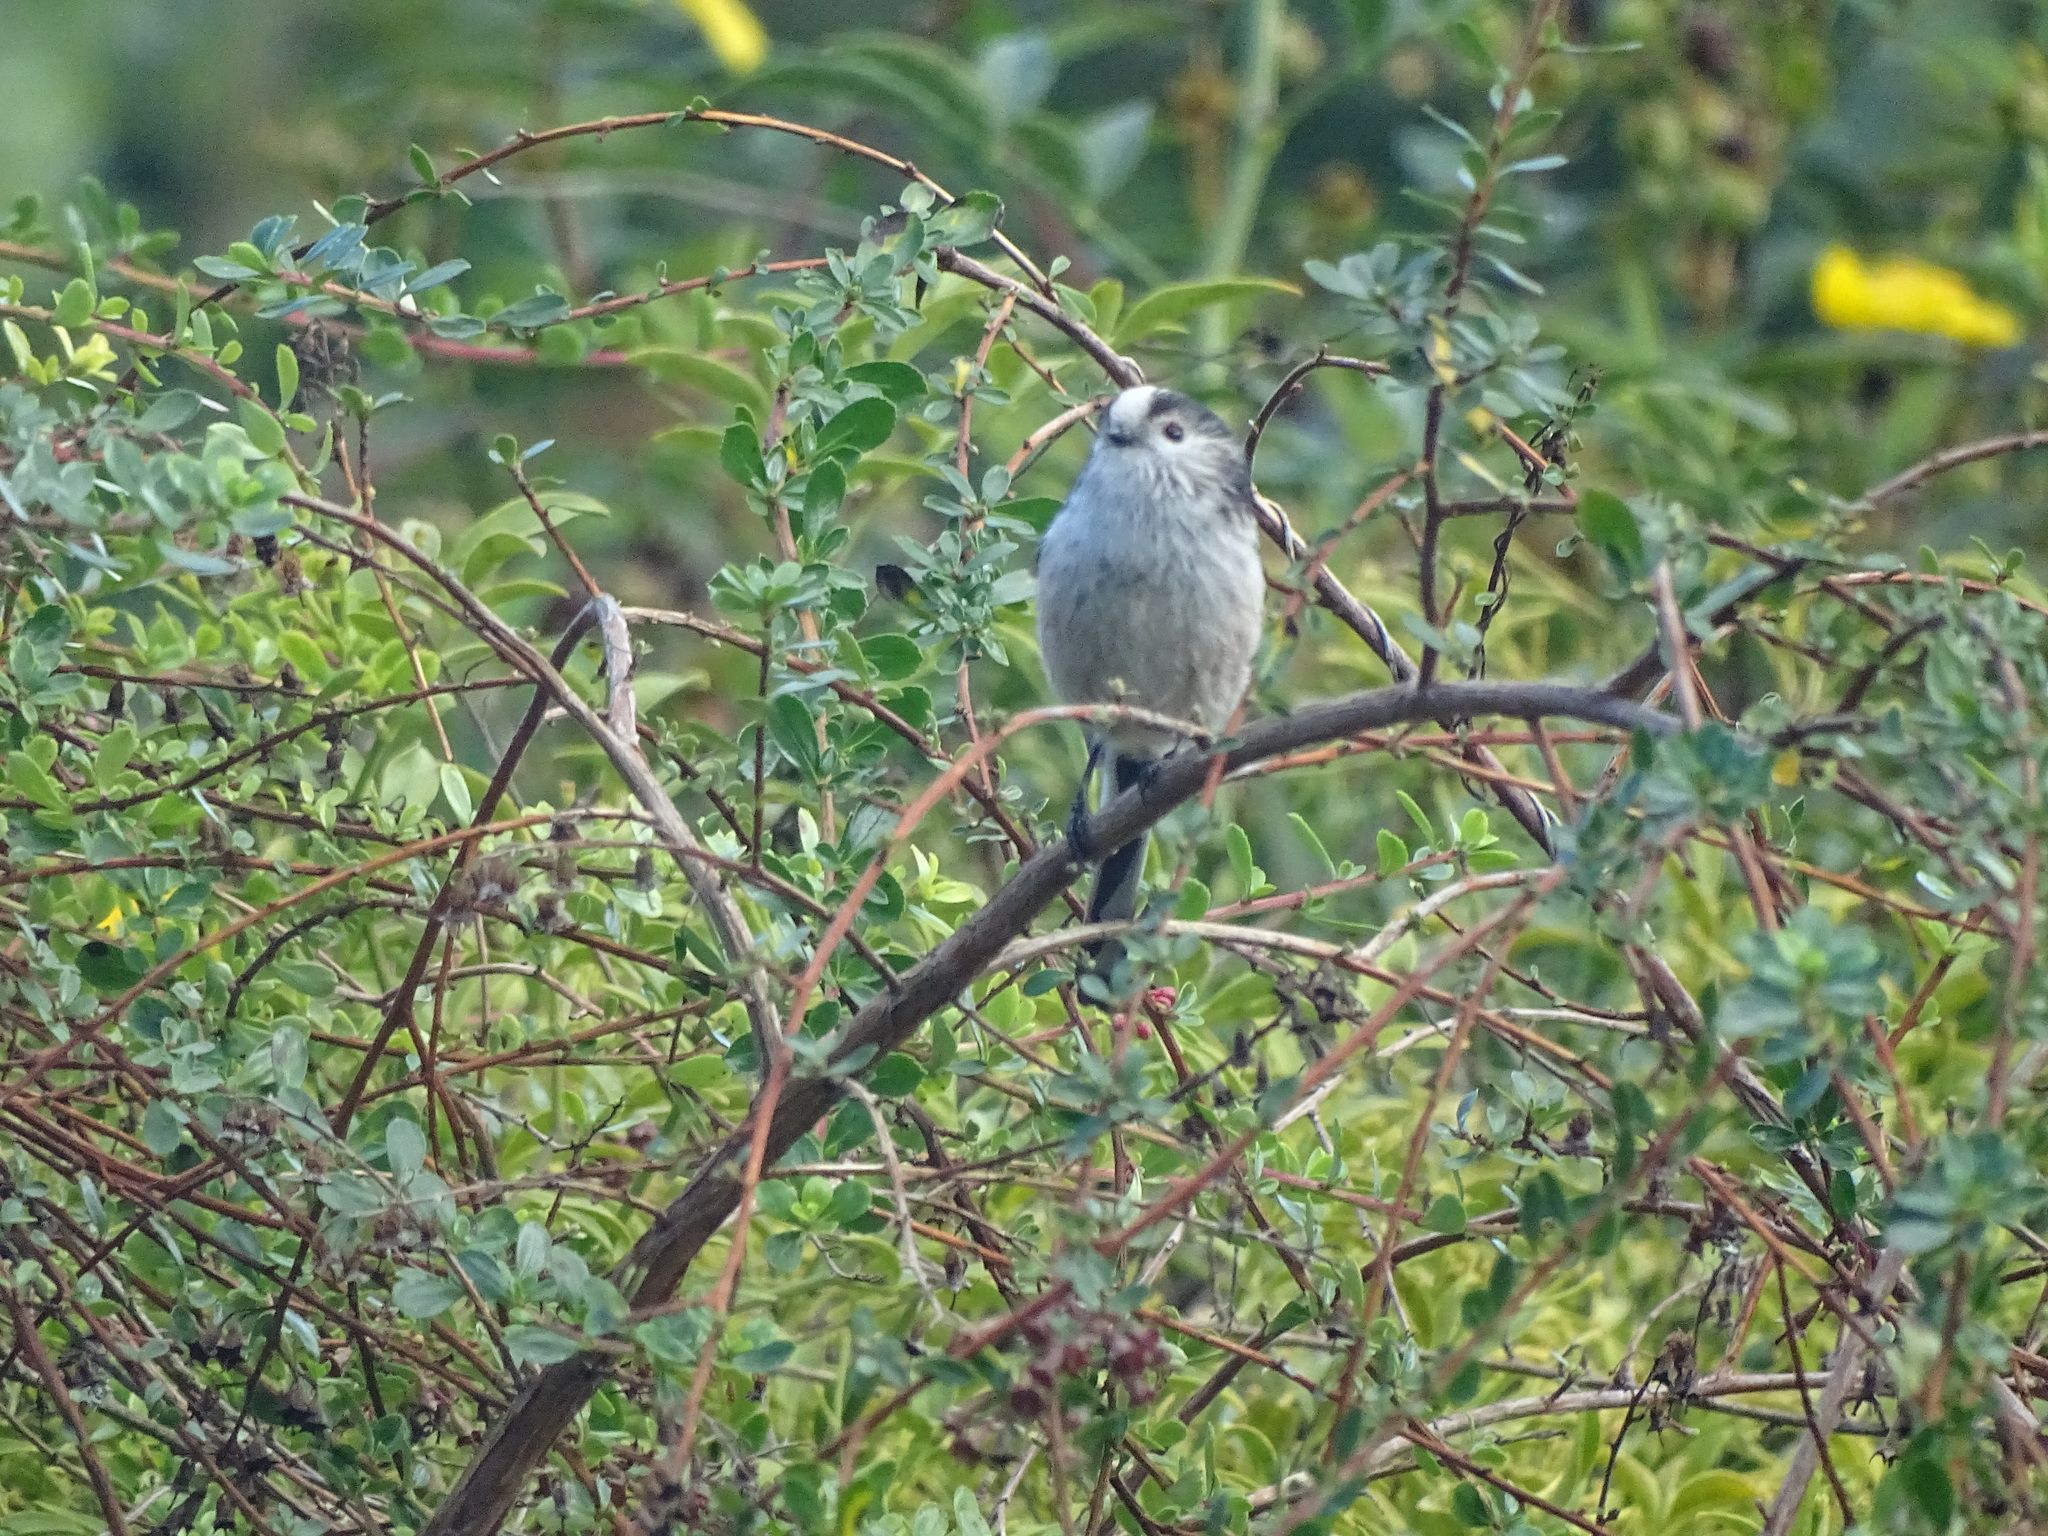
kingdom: Animalia
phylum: Chordata
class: Aves
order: Passeriformes
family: Aegithalidae
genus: Aegithalos
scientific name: Aegithalos caudatus
